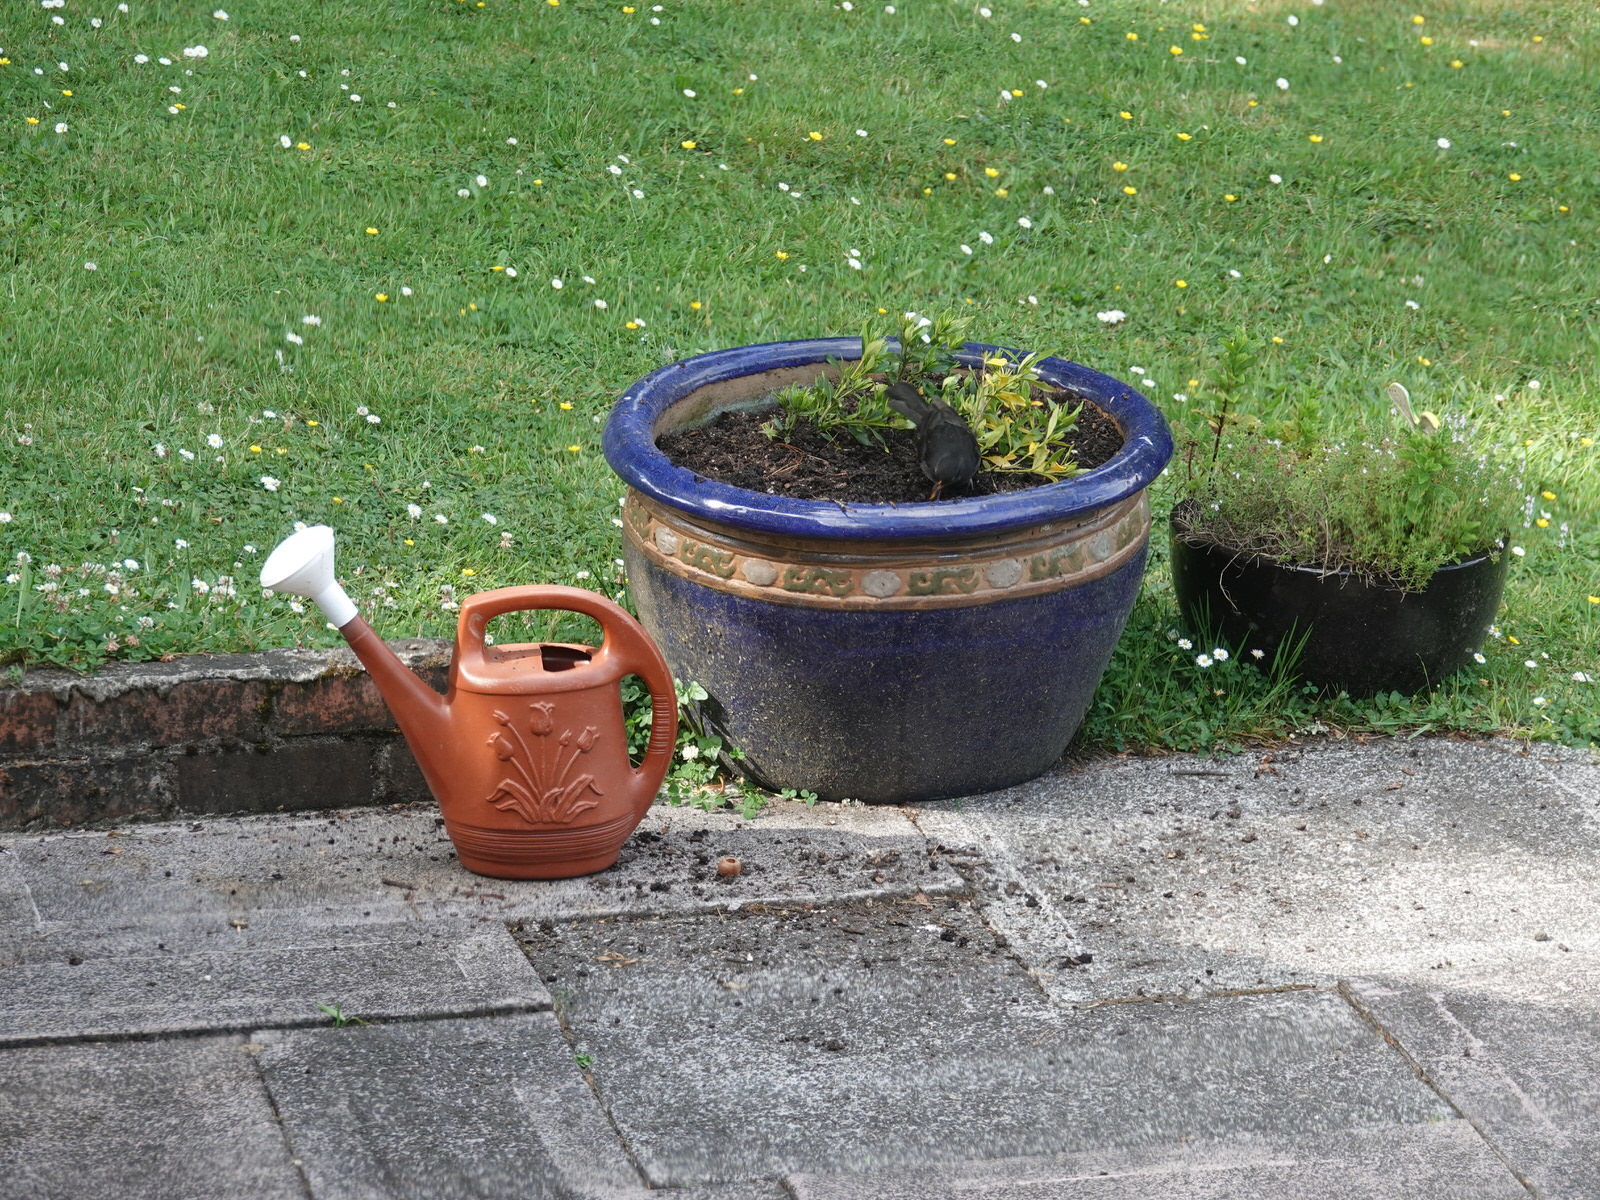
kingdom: Animalia
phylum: Chordata
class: Aves
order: Passeriformes
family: Turdidae
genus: Turdus
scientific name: Turdus merula
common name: Common blackbird
